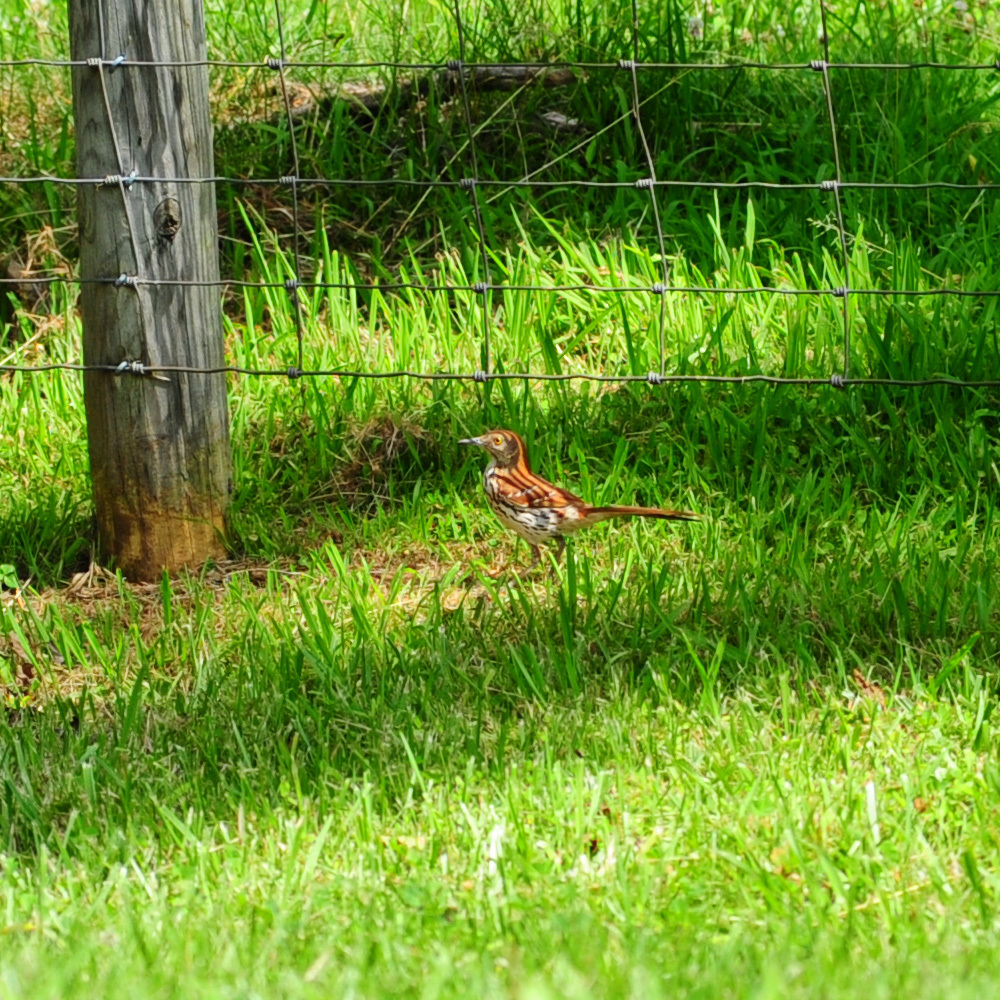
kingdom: Animalia
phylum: Chordata
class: Aves
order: Passeriformes
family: Mimidae
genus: Toxostoma
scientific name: Toxostoma rufum
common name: Brown thrasher
